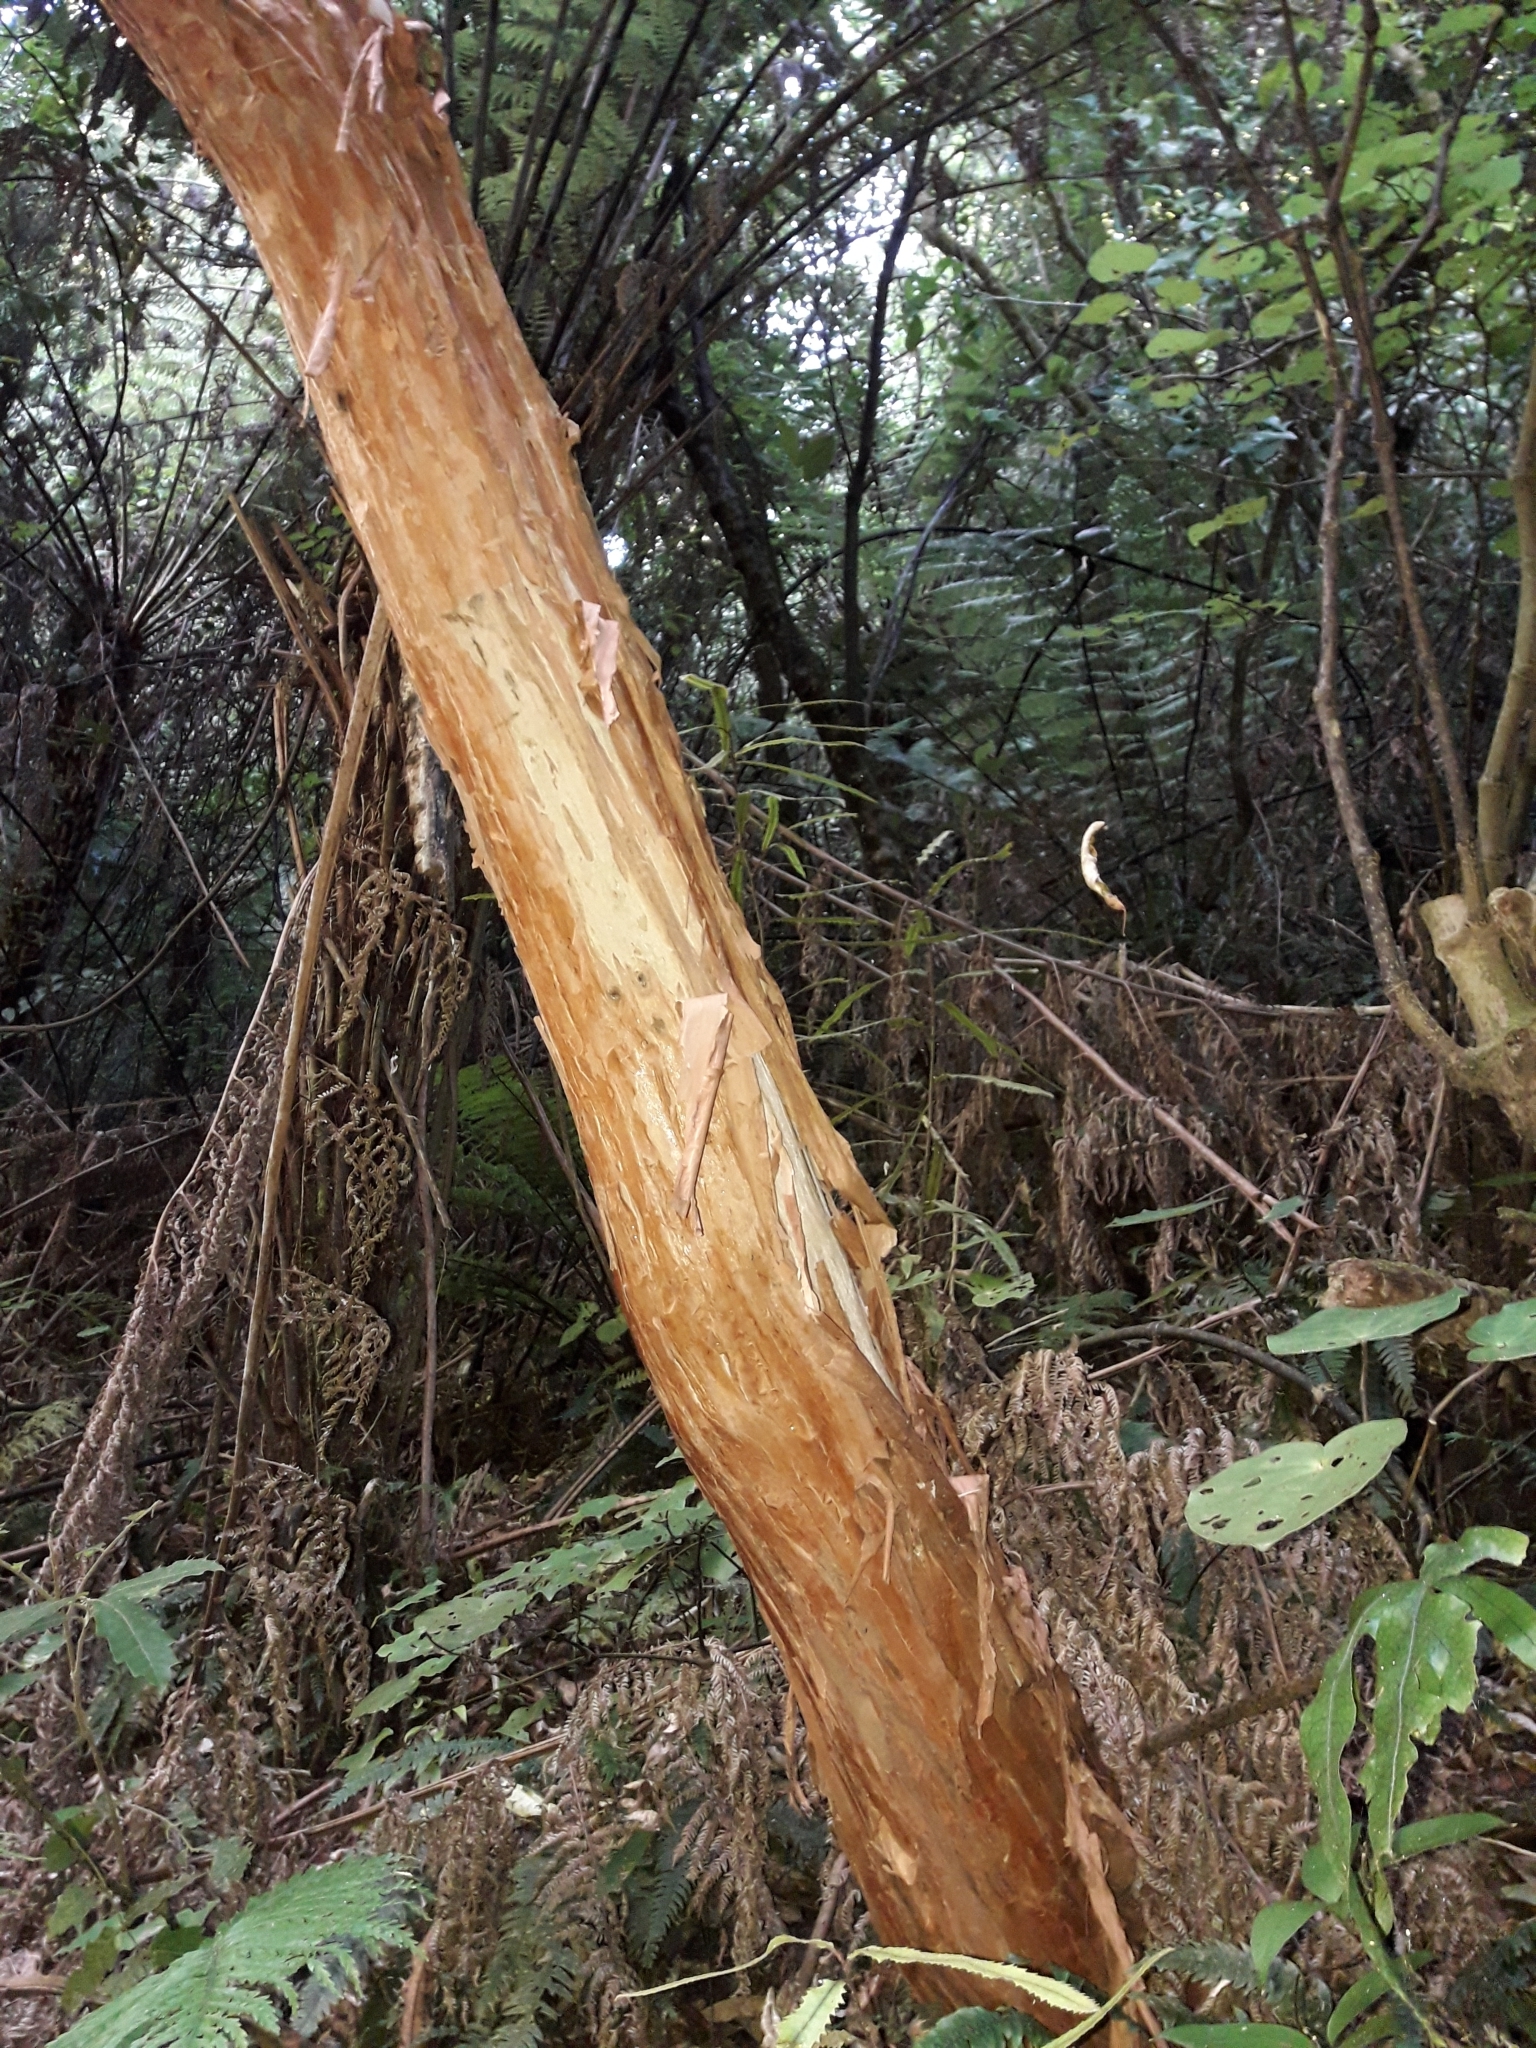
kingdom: Plantae
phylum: Tracheophyta
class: Magnoliopsida
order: Myrtales
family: Onagraceae
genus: Fuchsia
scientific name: Fuchsia excorticata
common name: Tree fuchsia
